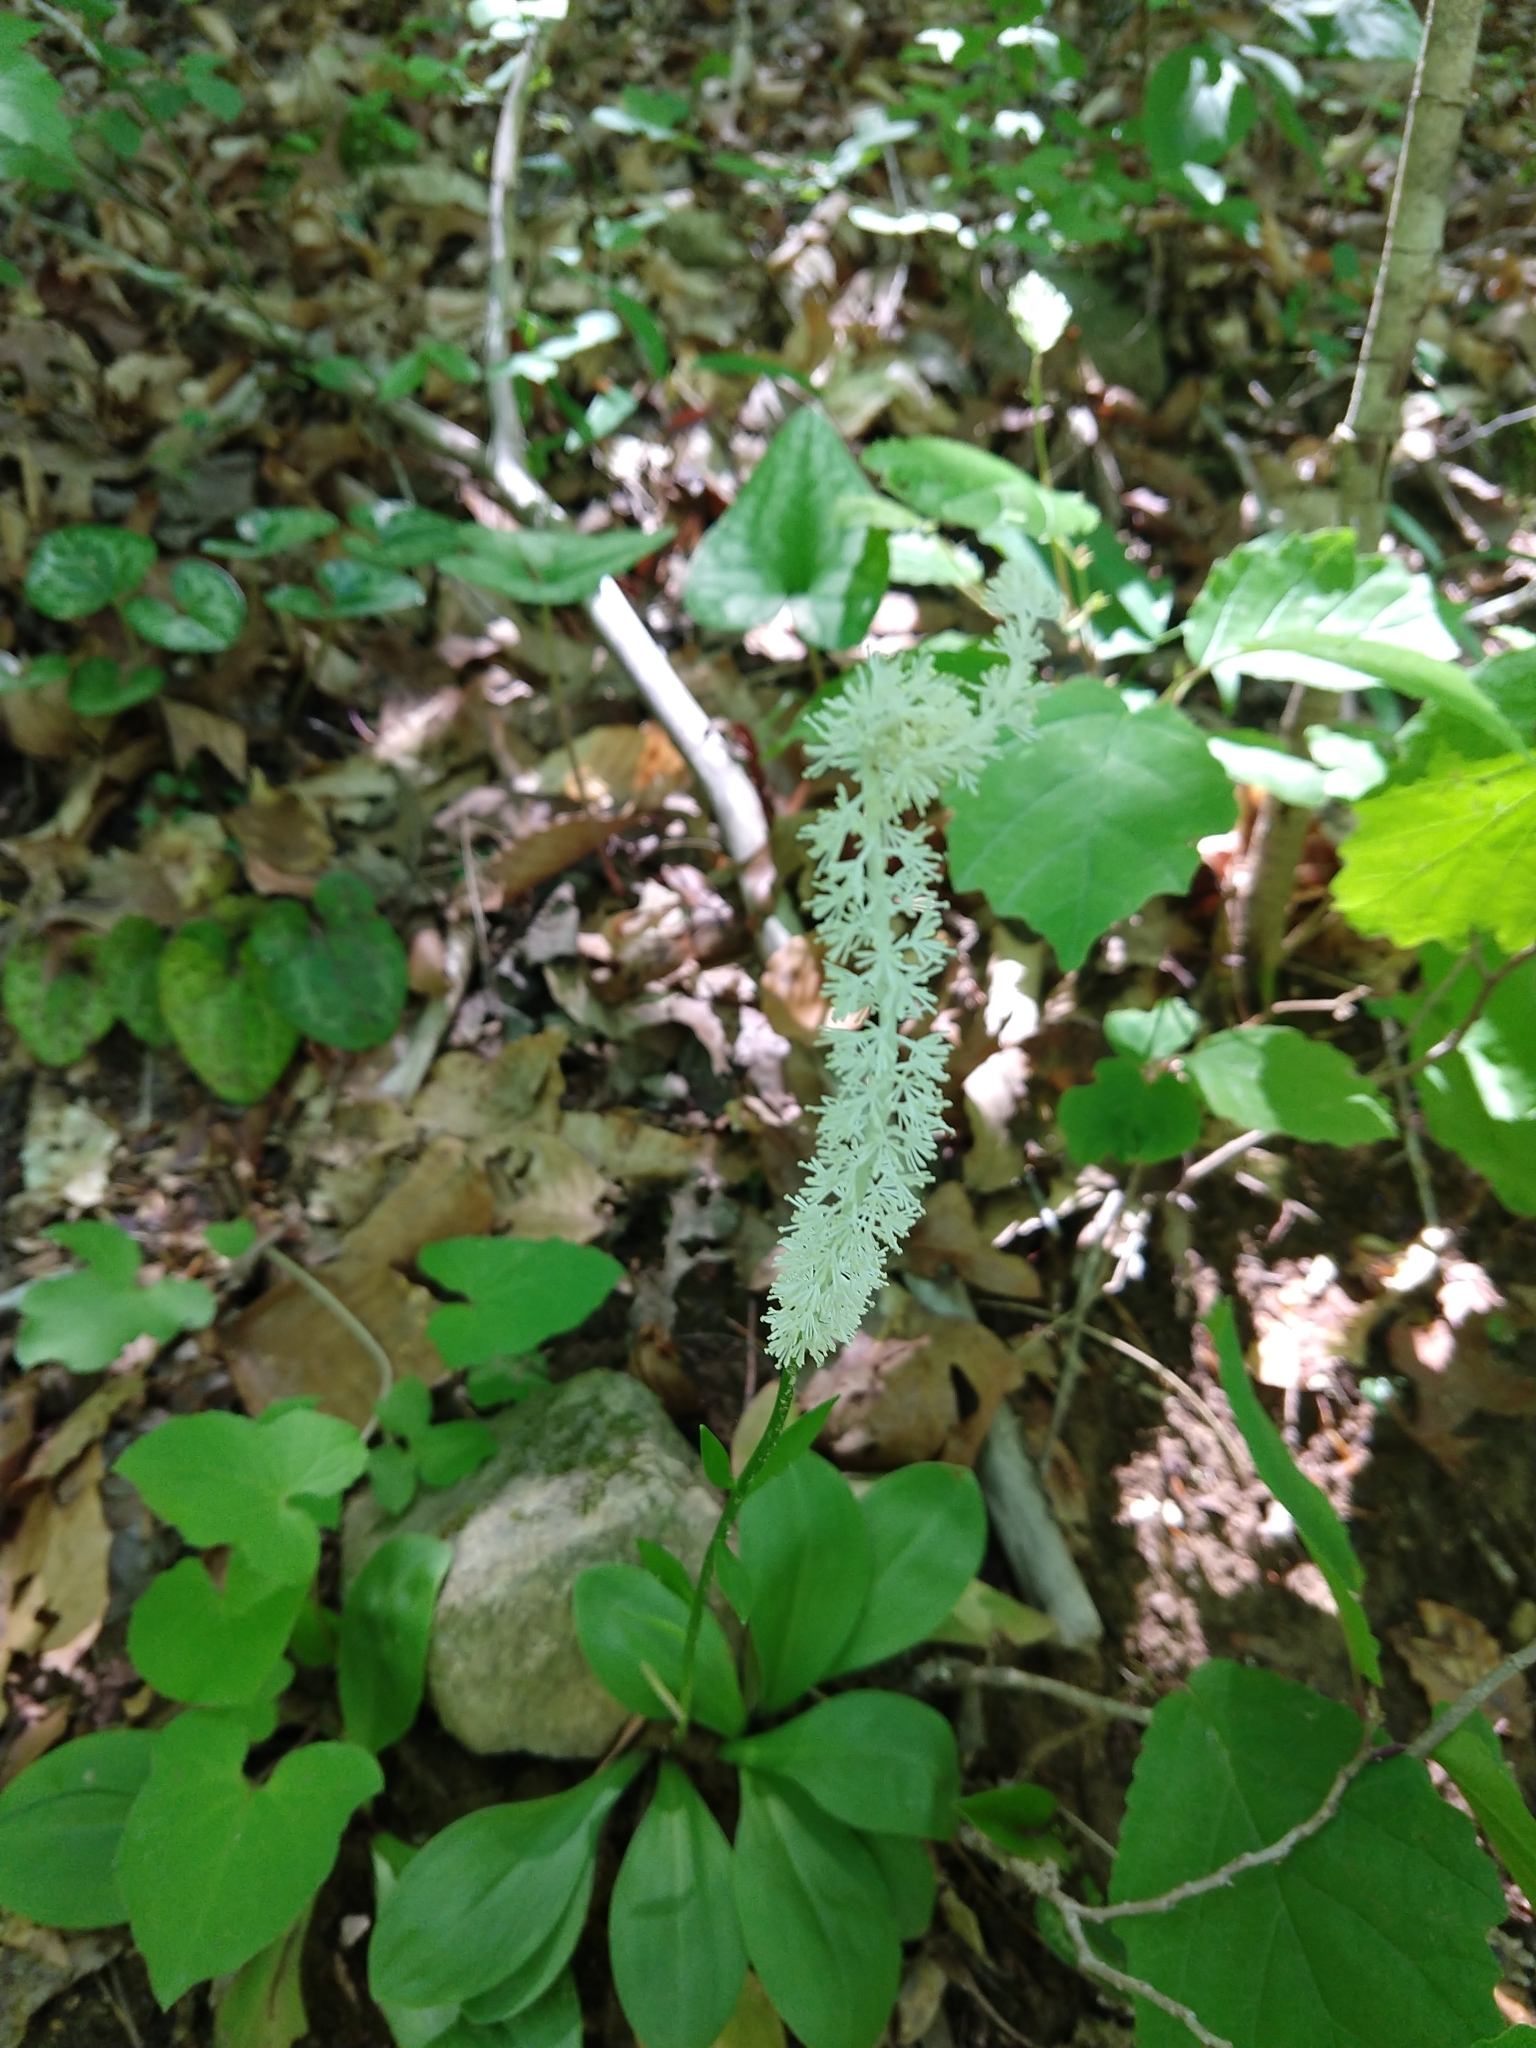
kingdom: Plantae
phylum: Tracheophyta
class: Liliopsida
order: Liliales
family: Melanthiaceae
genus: Chamaelirium
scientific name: Chamaelirium luteum
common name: Fairy-wand
